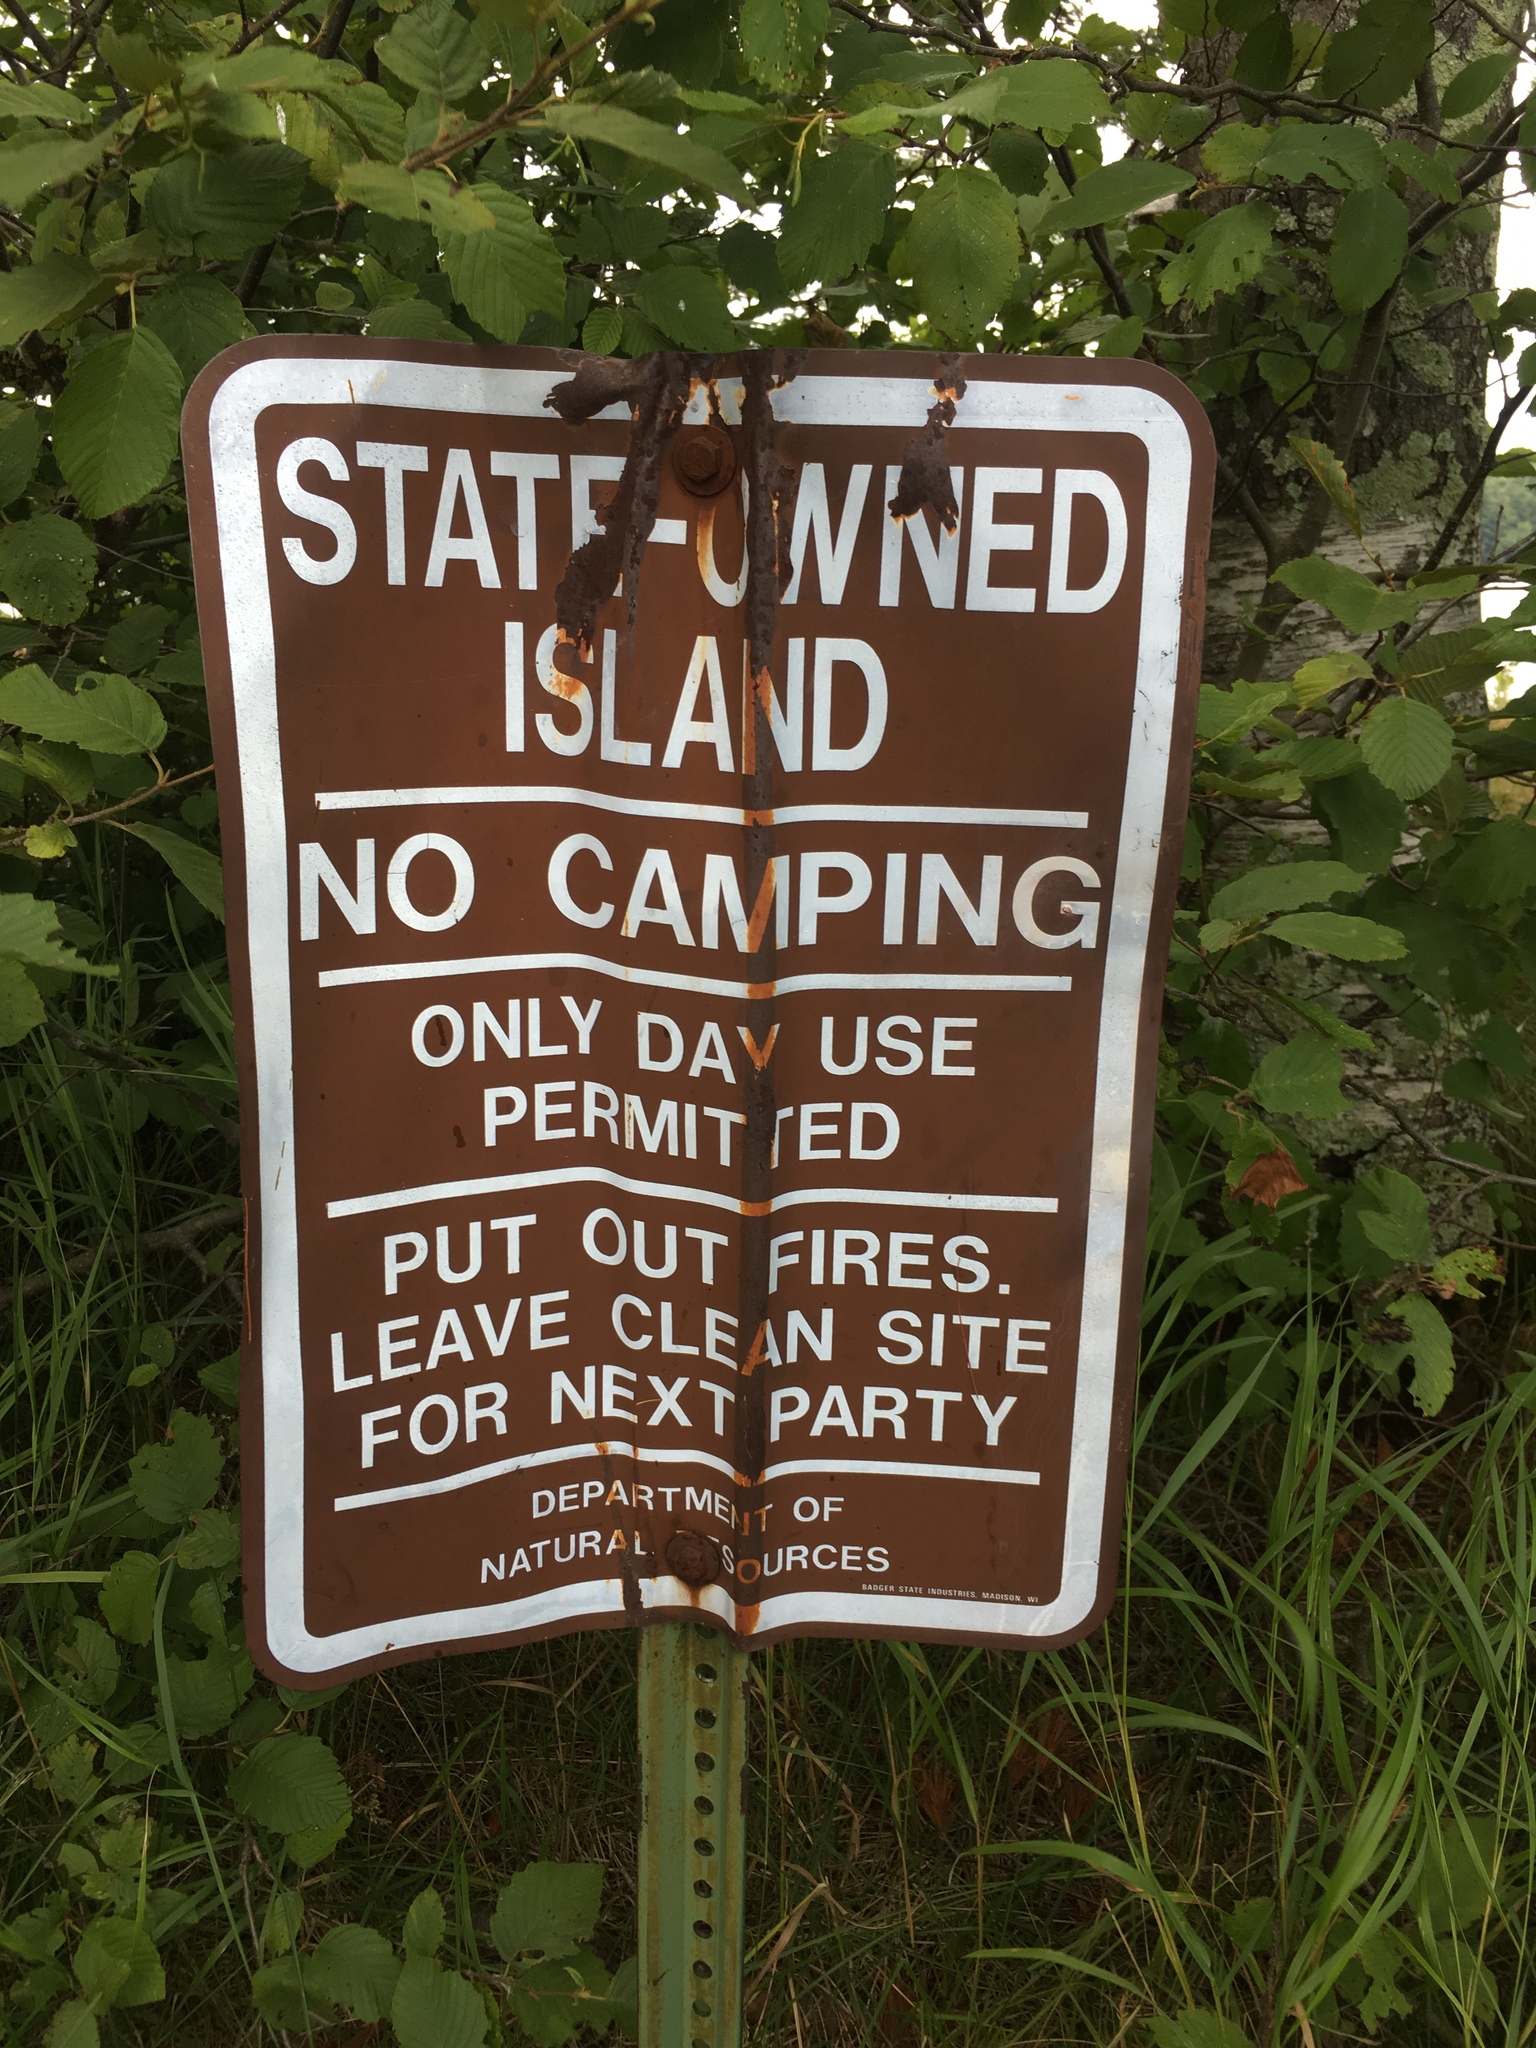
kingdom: Plantae
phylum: Tracheophyta
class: Magnoliopsida
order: Myrtales
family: Onagraceae
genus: Oenothera
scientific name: Oenothera biennis
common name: Common evening-primrose
